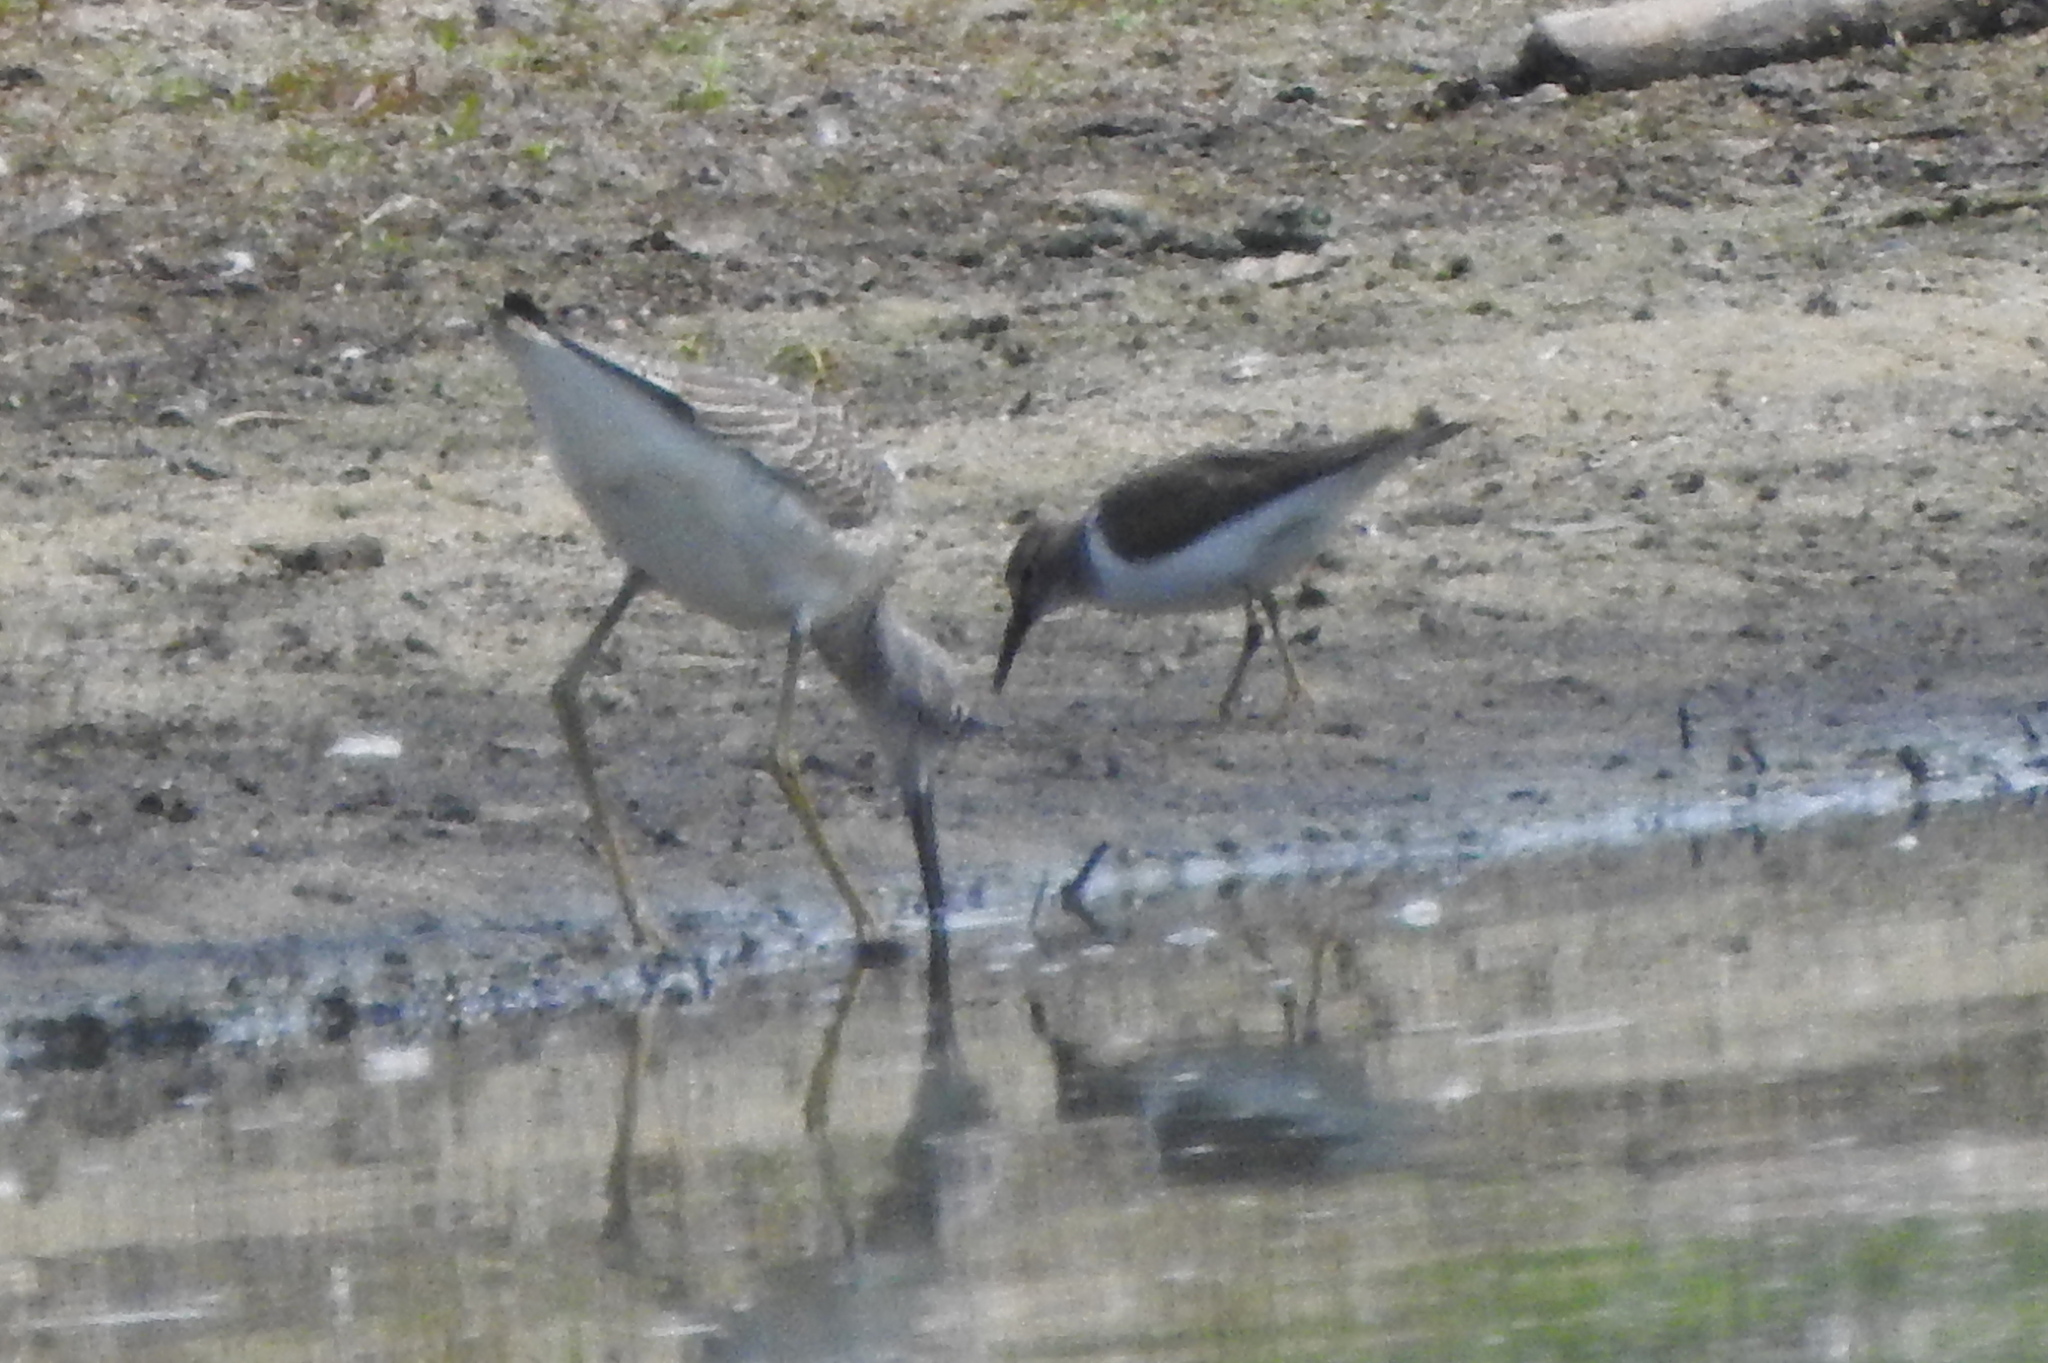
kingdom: Animalia
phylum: Chordata
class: Aves
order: Charadriiformes
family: Scolopacidae
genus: Actitis
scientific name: Actitis hypoleucos
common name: Common sandpiper
